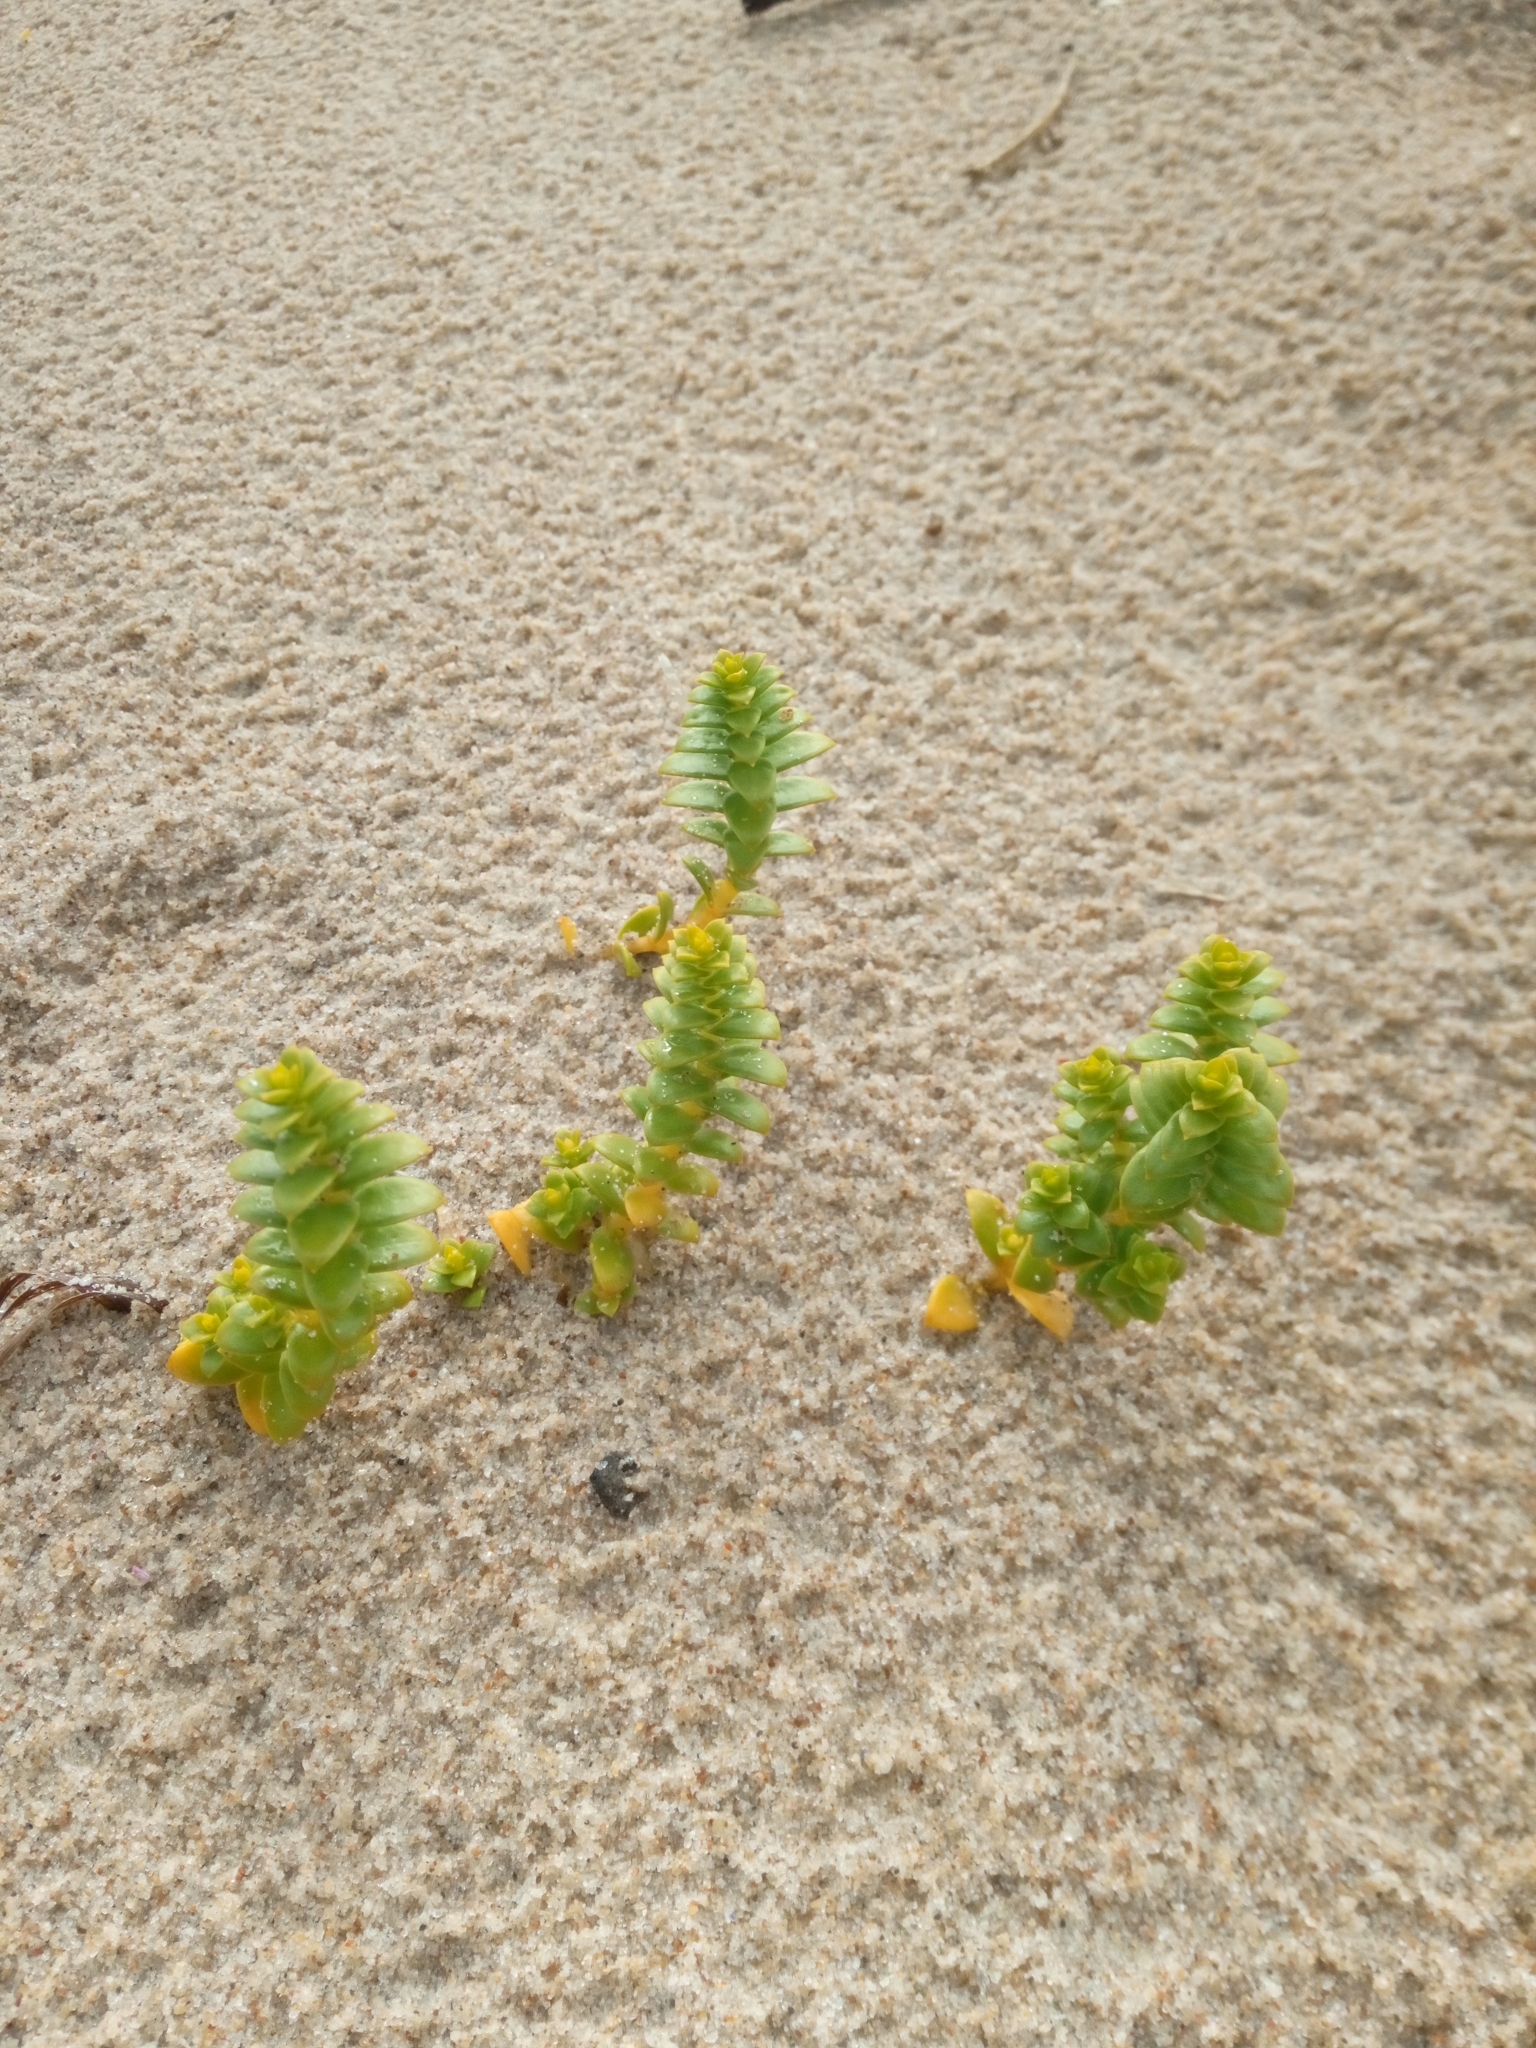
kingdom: Plantae
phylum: Tracheophyta
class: Magnoliopsida
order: Caryophyllales
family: Caryophyllaceae
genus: Honckenya
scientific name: Honckenya peploides
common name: Sea sandwort
